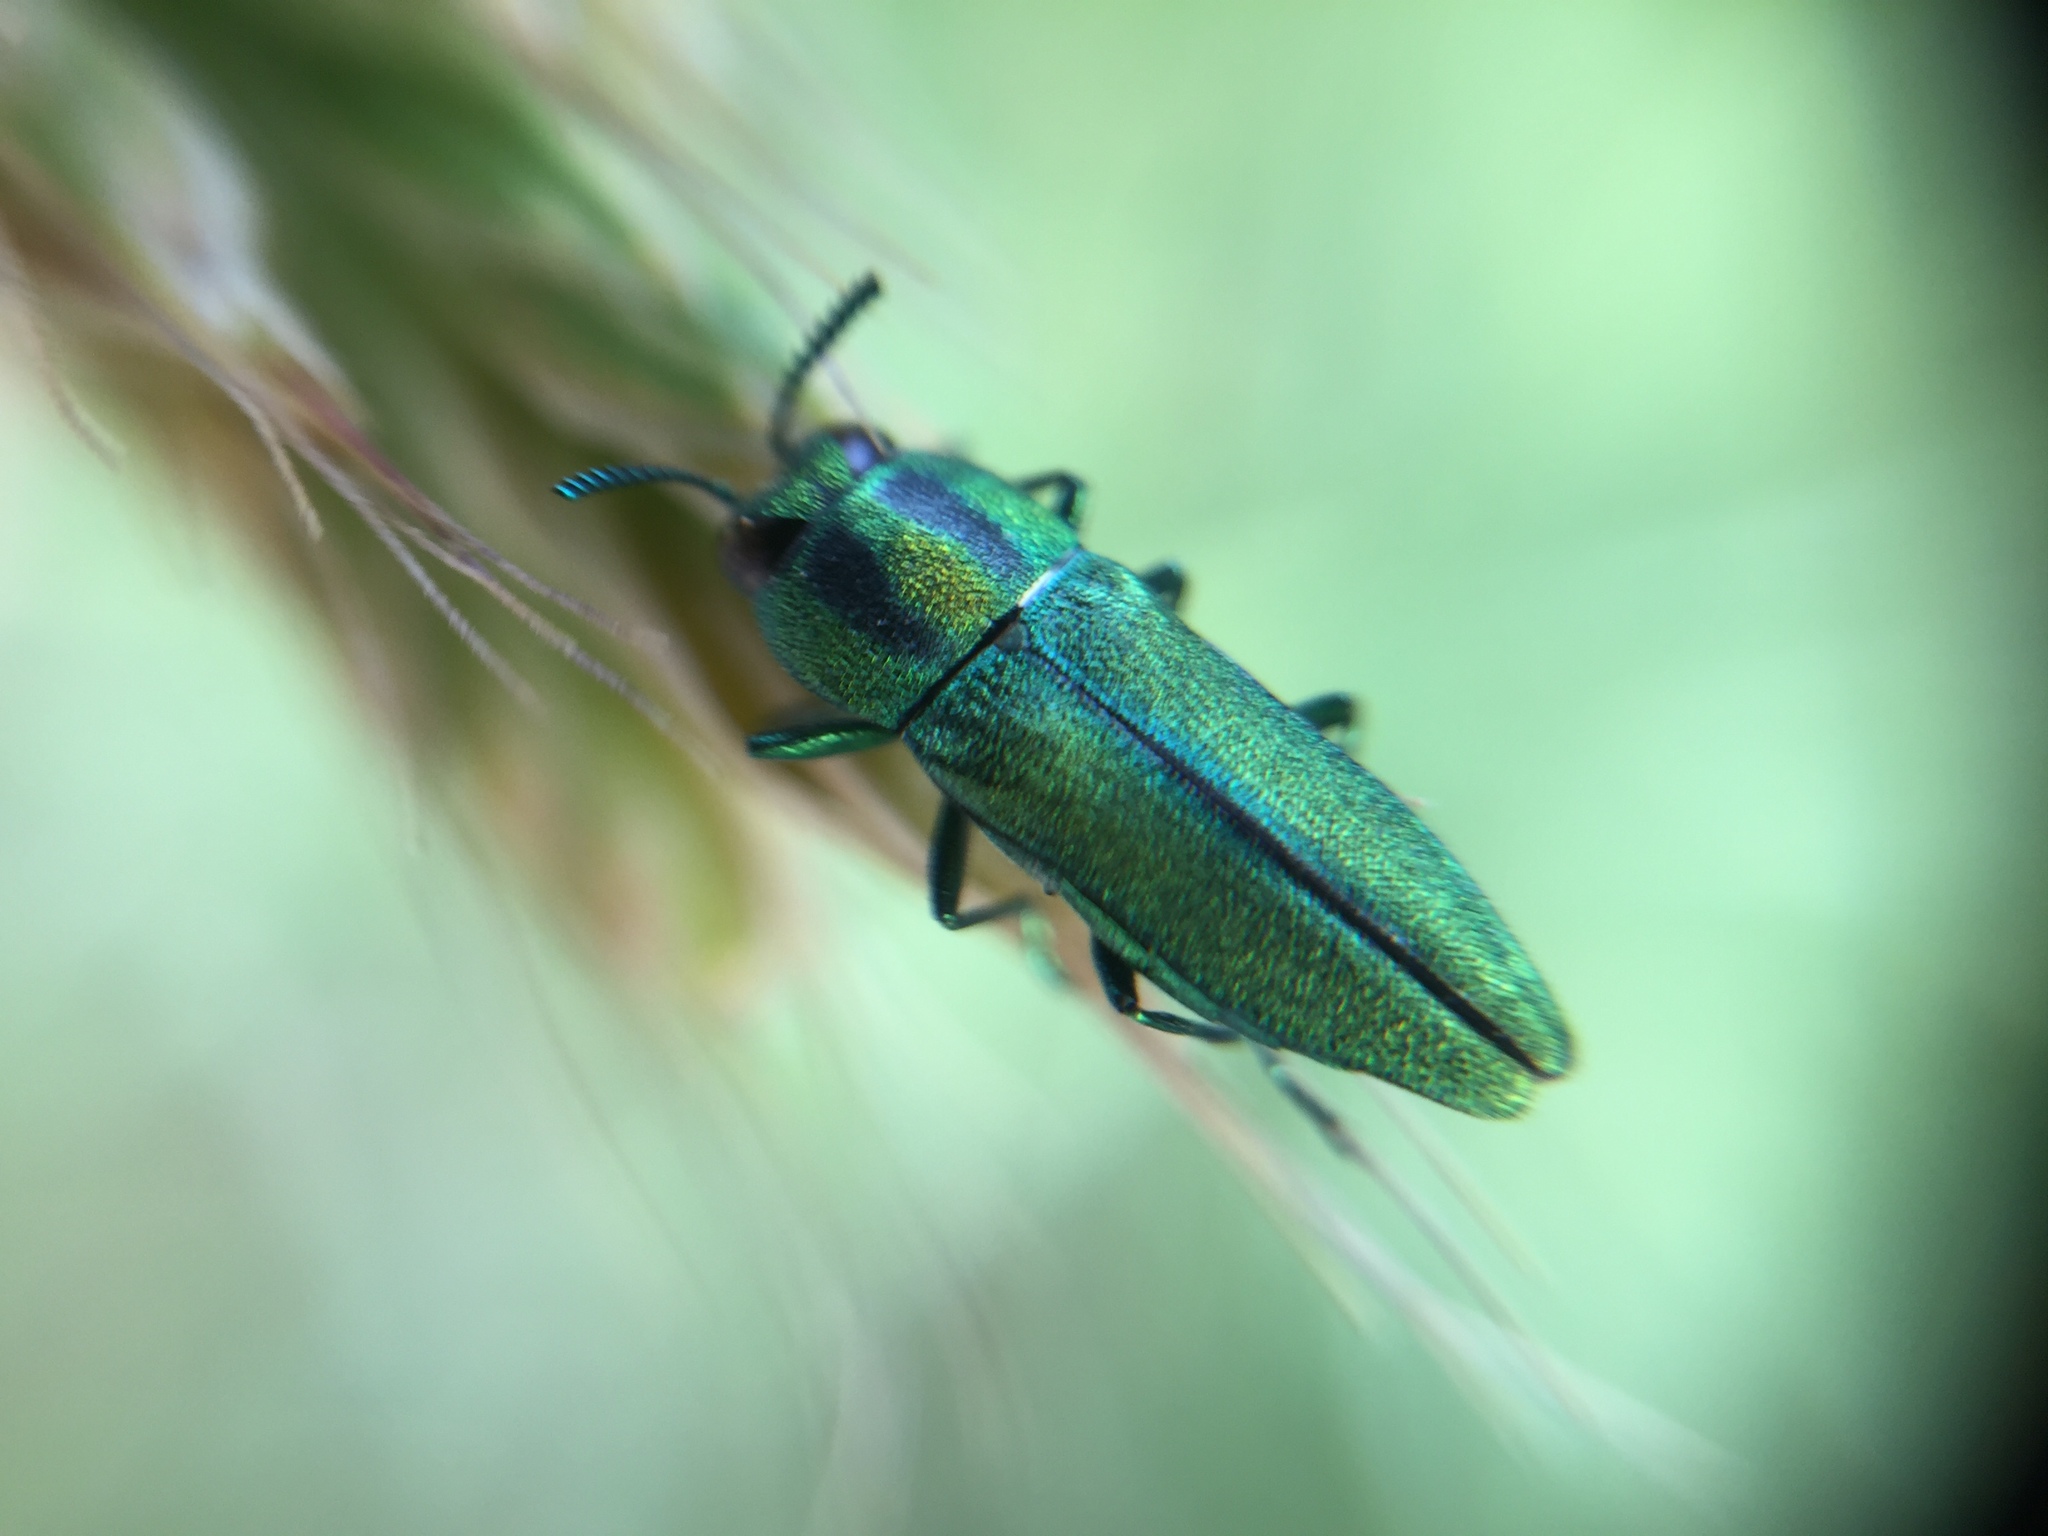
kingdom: Animalia
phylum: Arthropoda
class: Insecta
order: Coleoptera
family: Buprestidae
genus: Anthaxia
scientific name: Anthaxia scorzonerae
